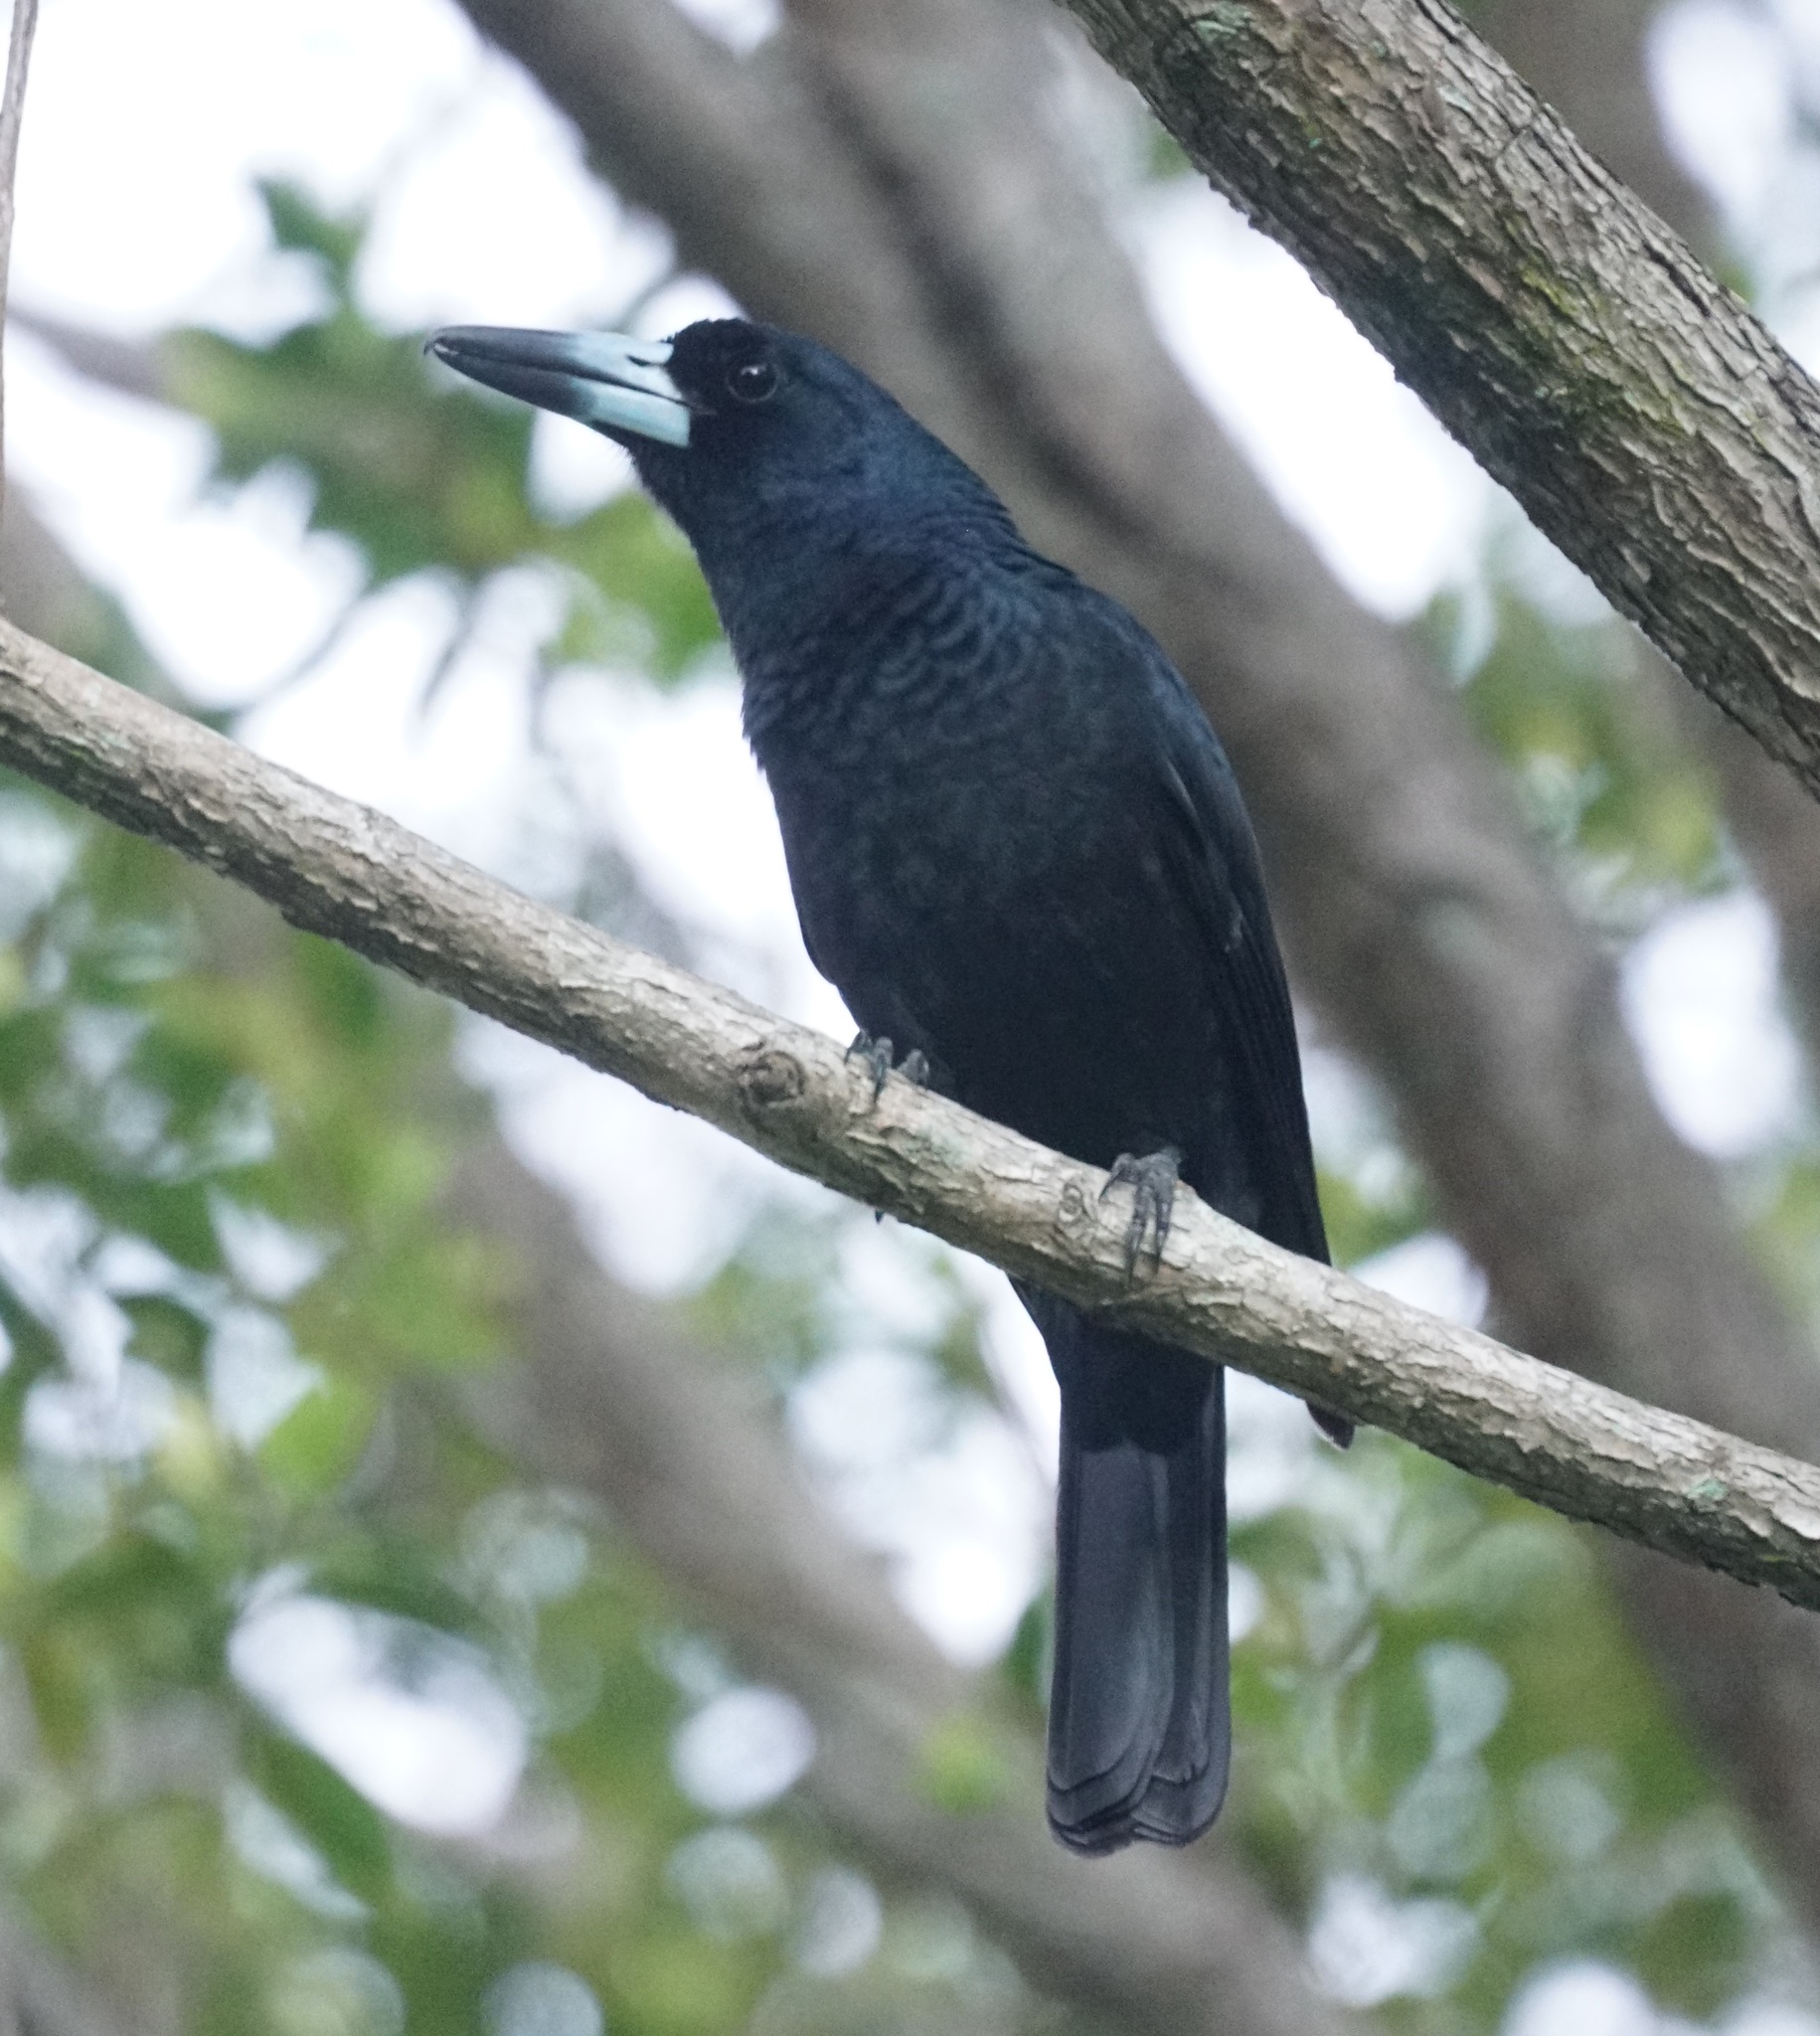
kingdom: Animalia
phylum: Chordata
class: Aves
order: Passeriformes
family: Artamidae
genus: Melloria
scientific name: Melloria quoyi
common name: Black butcherbird
